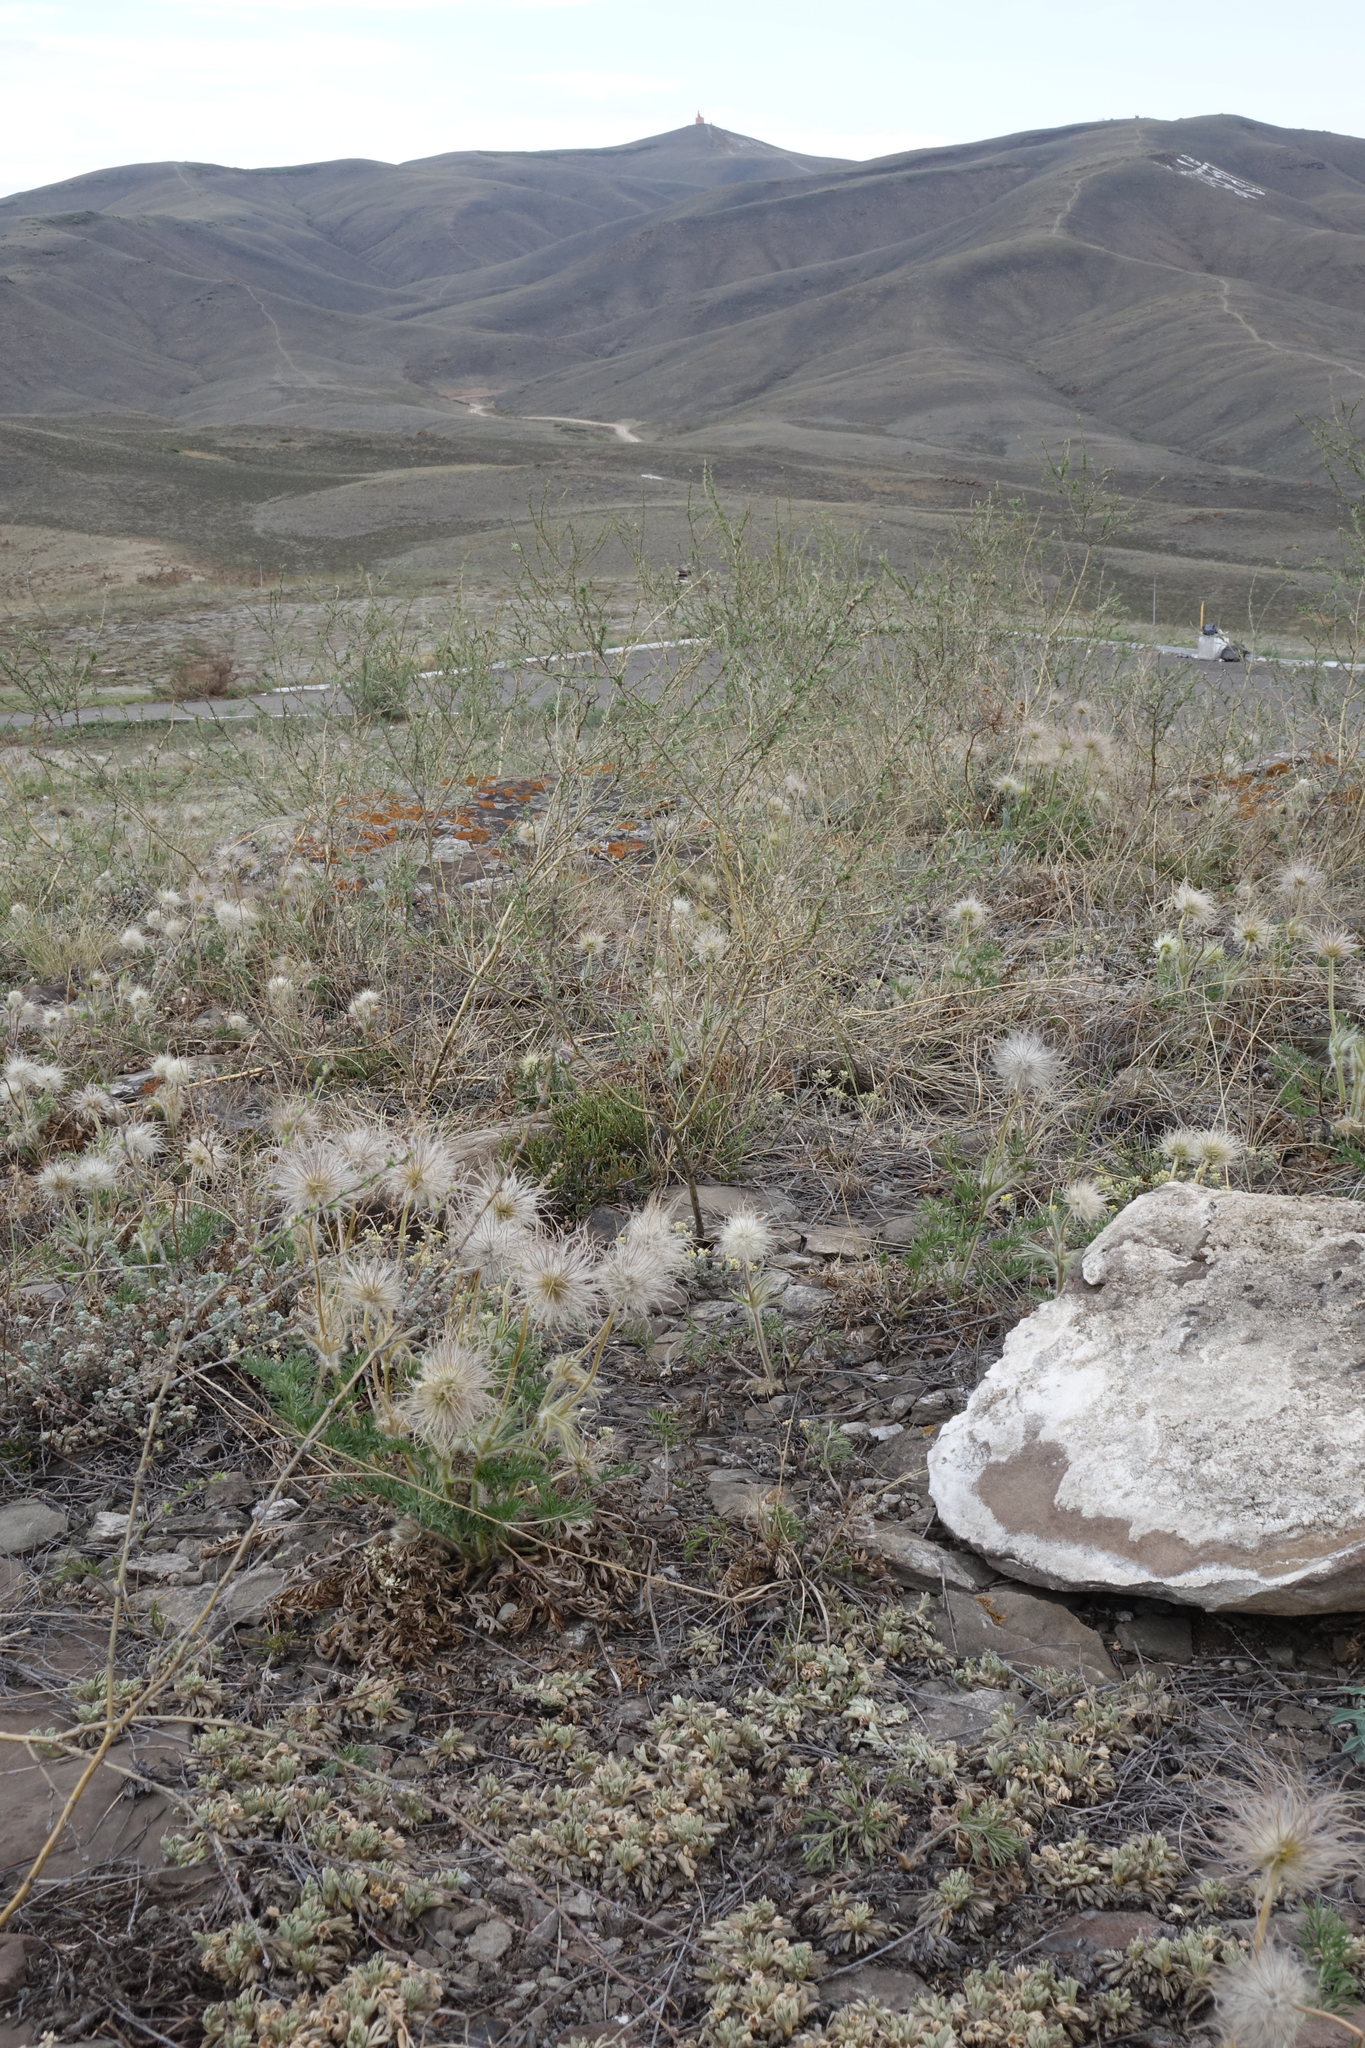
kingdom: Plantae
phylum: Tracheophyta
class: Magnoliopsida
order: Ranunculales
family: Ranunculaceae
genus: Pulsatilla
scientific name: Pulsatilla turczaninovii
